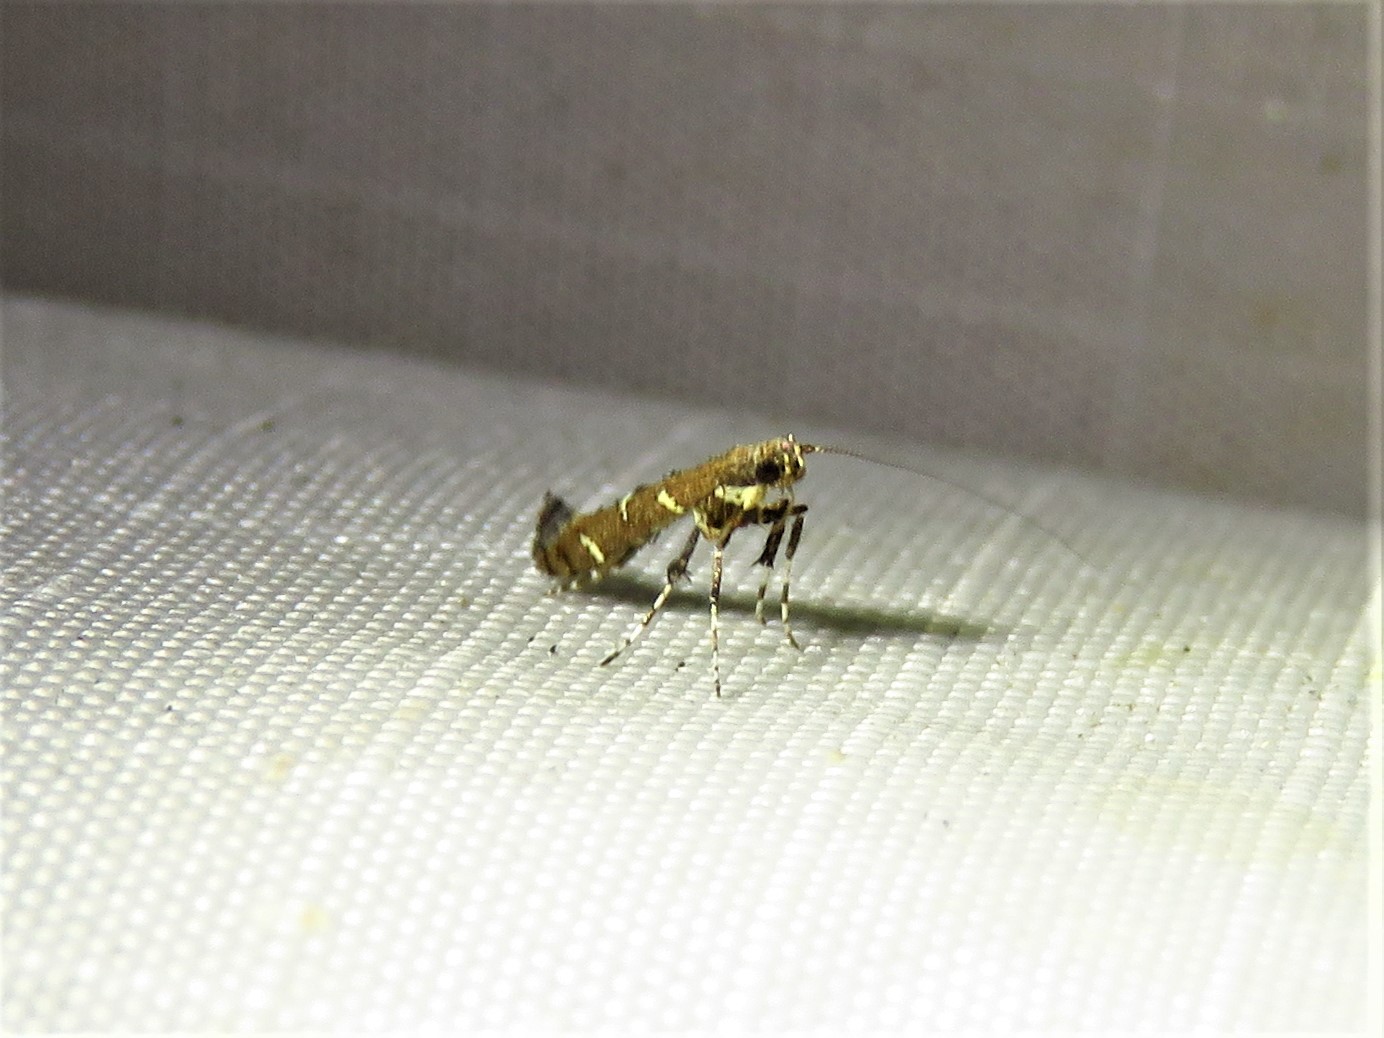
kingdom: Animalia
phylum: Arthropoda
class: Insecta
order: Lepidoptera
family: Gracillariidae
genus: Caloptilia
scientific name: Caloptilia triadicae
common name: Tallow leaf roller
